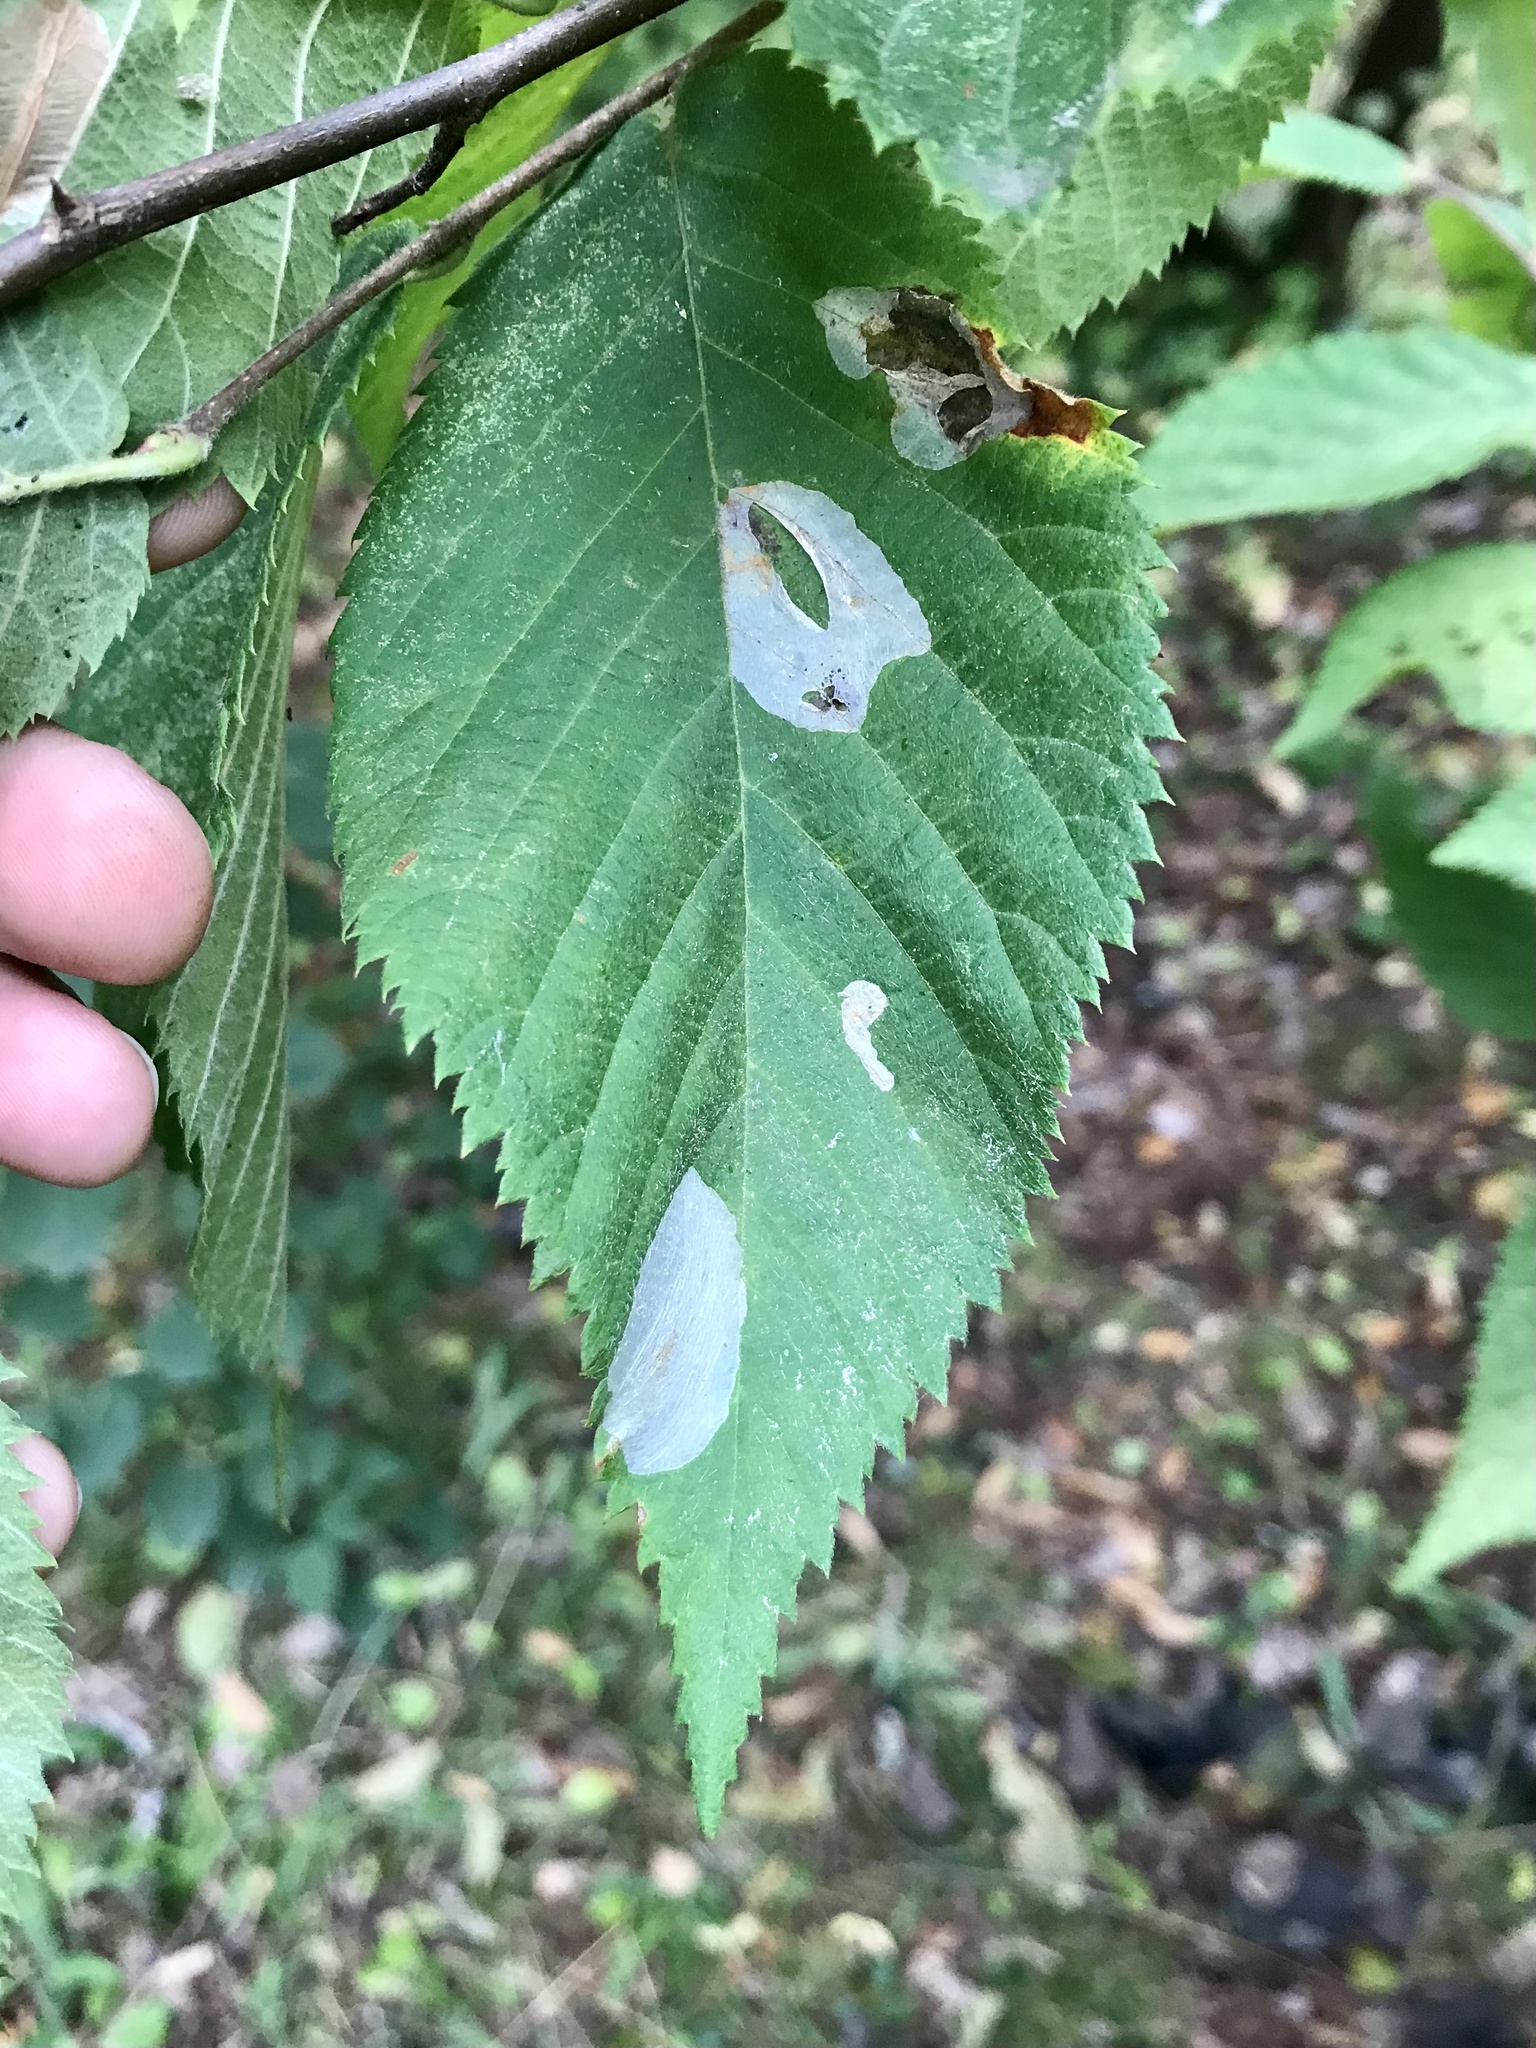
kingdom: Animalia
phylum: Arthropoda
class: Insecta
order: Lepidoptera
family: Gracillariidae
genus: Phyllonorycter
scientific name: Phyllonorycter tritaenianella
